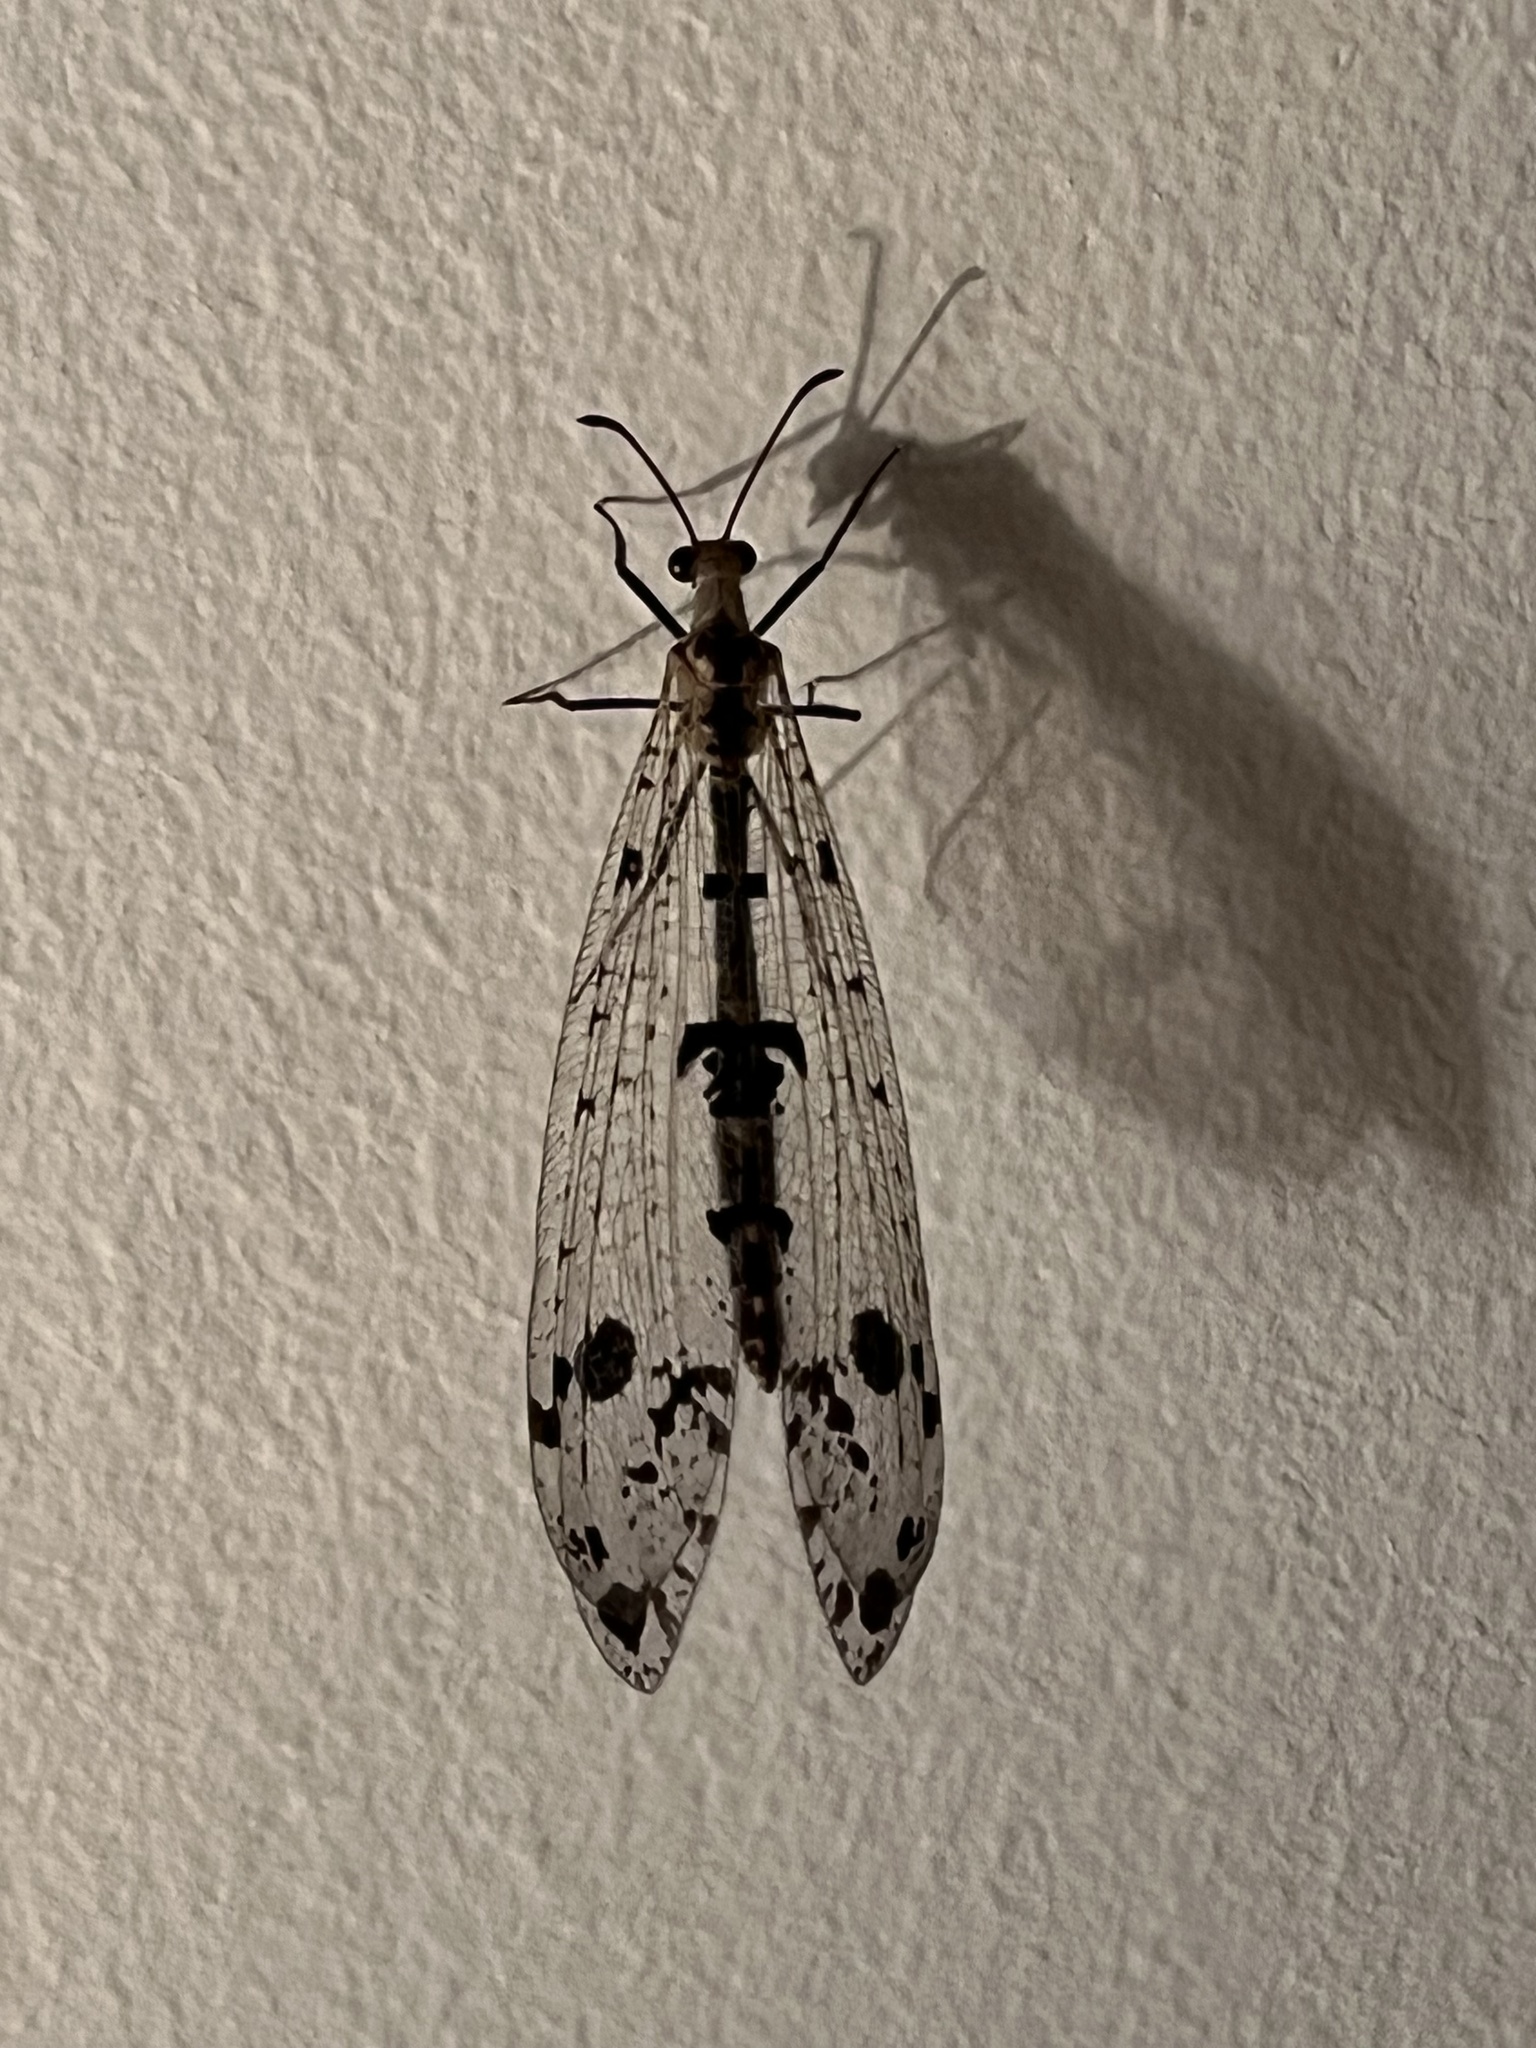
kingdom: Animalia
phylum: Arthropoda
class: Insecta
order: Neuroptera
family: Myrmeleontidae
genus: Dendroleon
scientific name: Dendroleon obsoletus
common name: Eastern spotted-winged antlion
